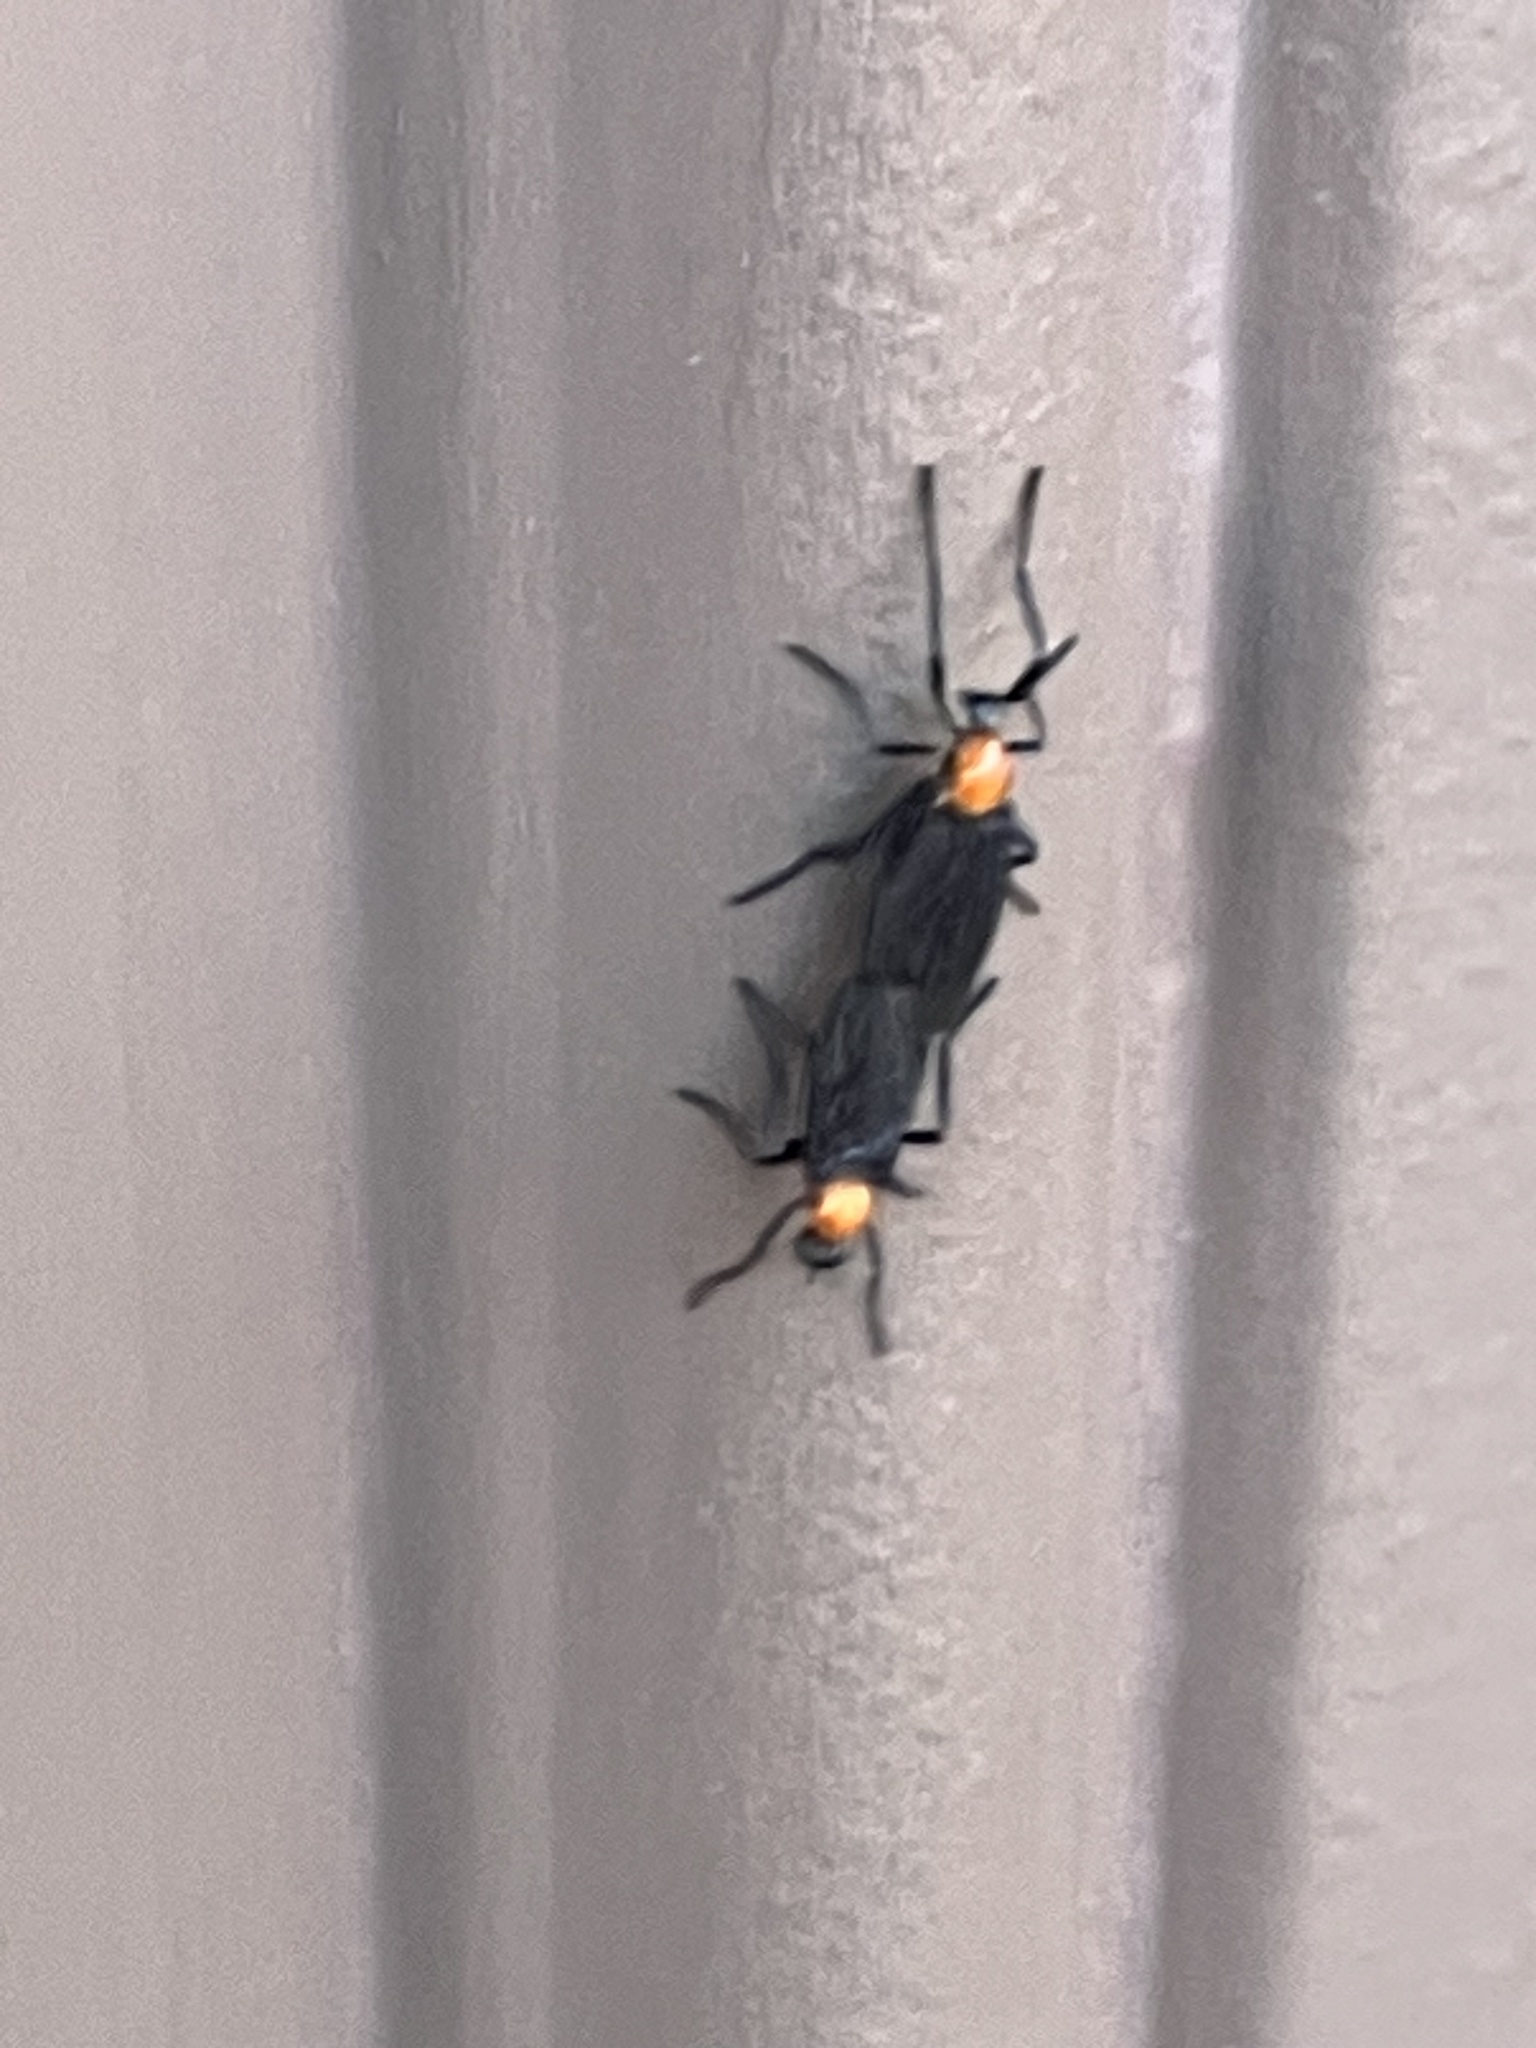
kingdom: Animalia
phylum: Arthropoda
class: Insecta
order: Diptera
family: Bibionidae
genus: Plecia
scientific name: Plecia nearctica
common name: March fly
